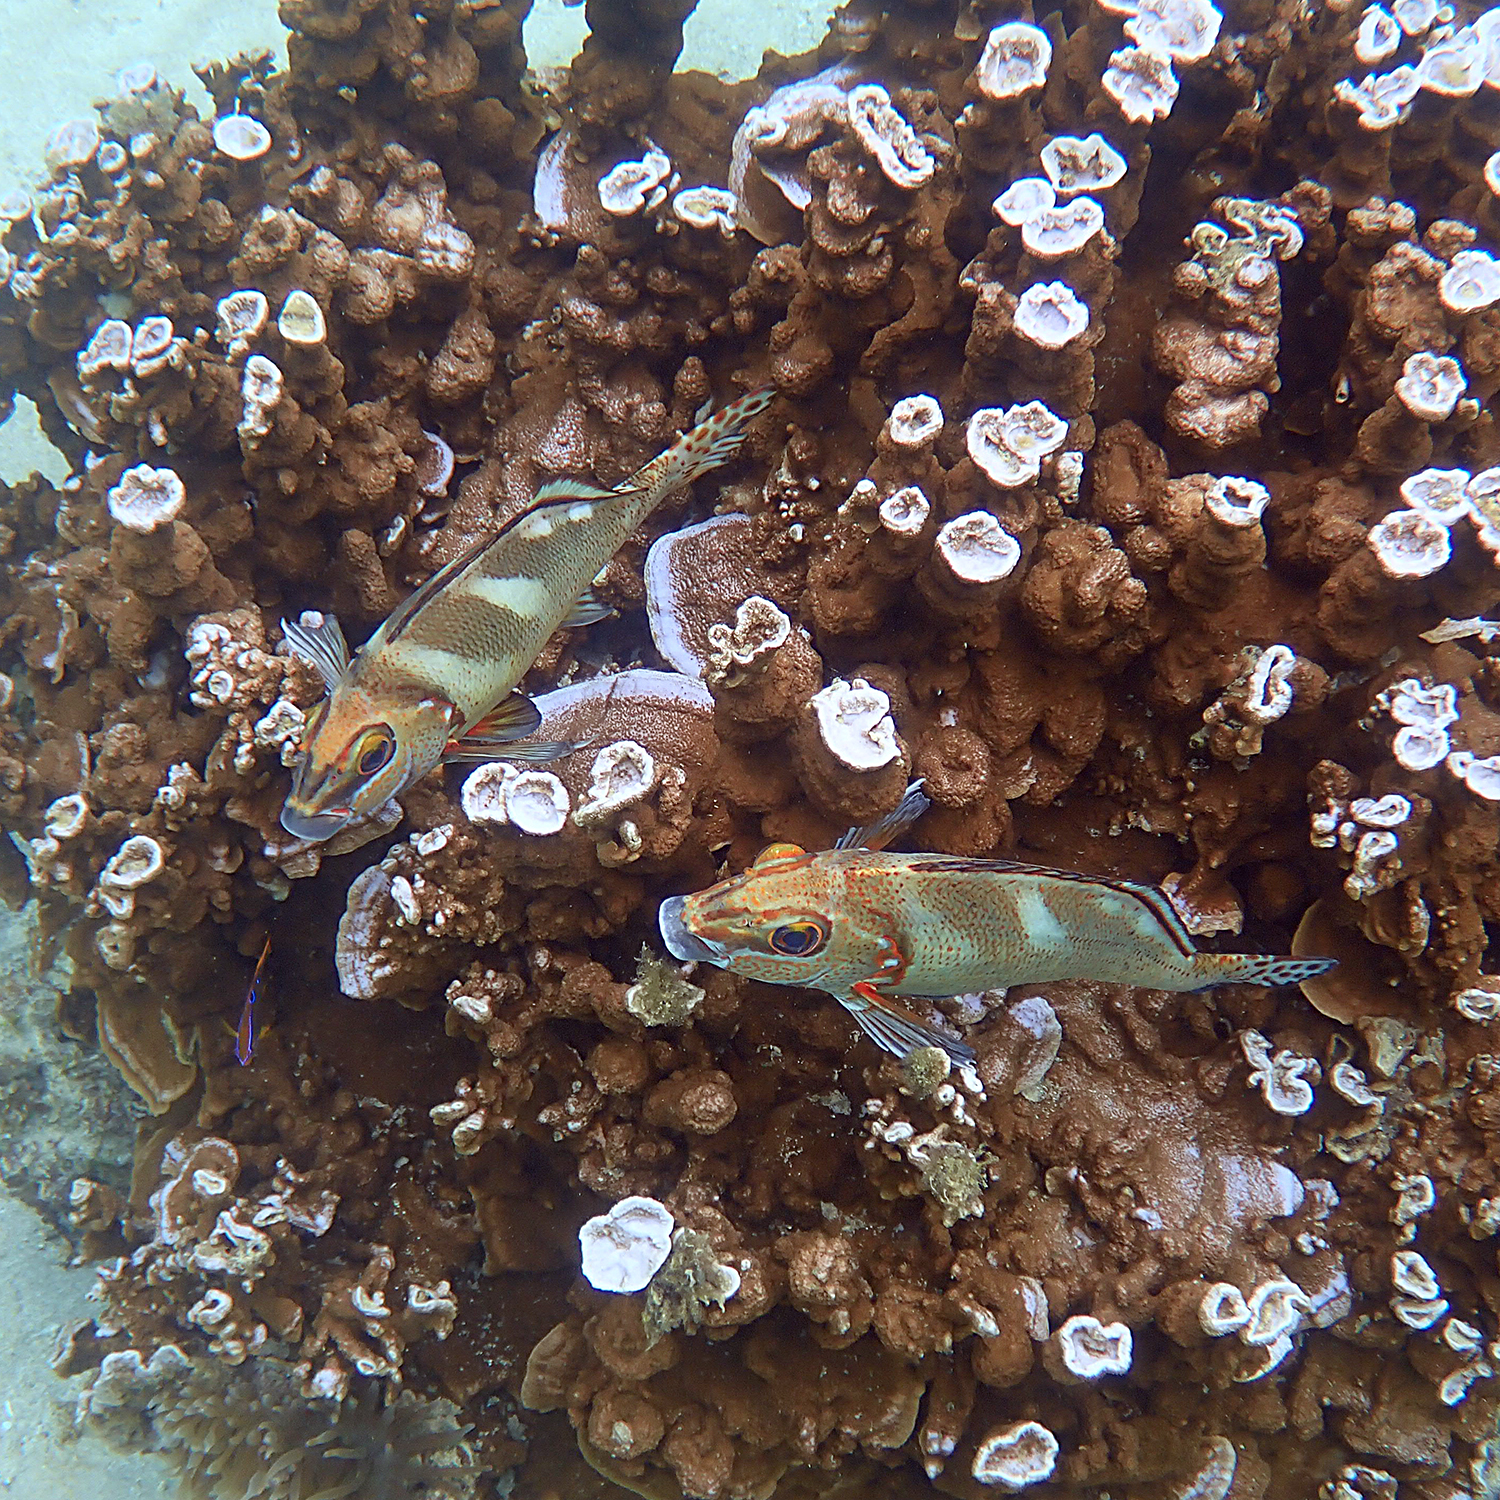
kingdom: Animalia
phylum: Chordata
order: Perciformes
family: Latridae
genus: Morwong
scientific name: Morwong ephippium
